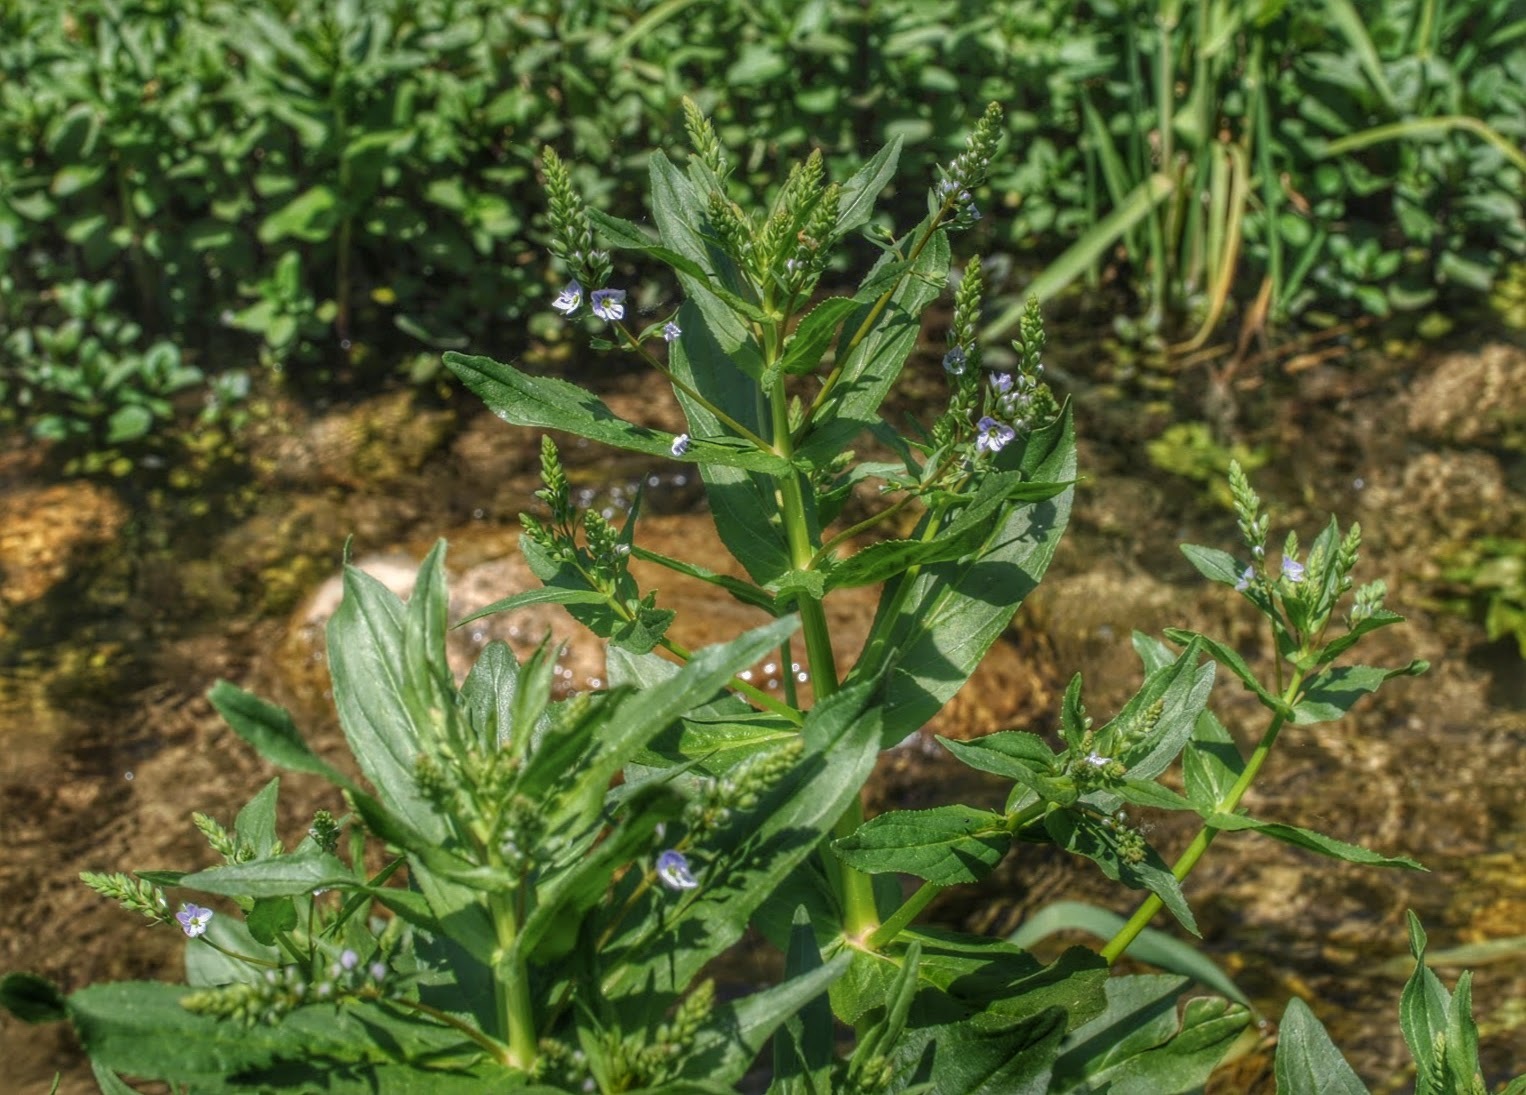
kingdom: Plantae
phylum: Tracheophyta
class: Magnoliopsida
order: Lamiales
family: Plantaginaceae
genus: Veronica
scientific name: Veronica anagallis-aquatica
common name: Water speedwell
